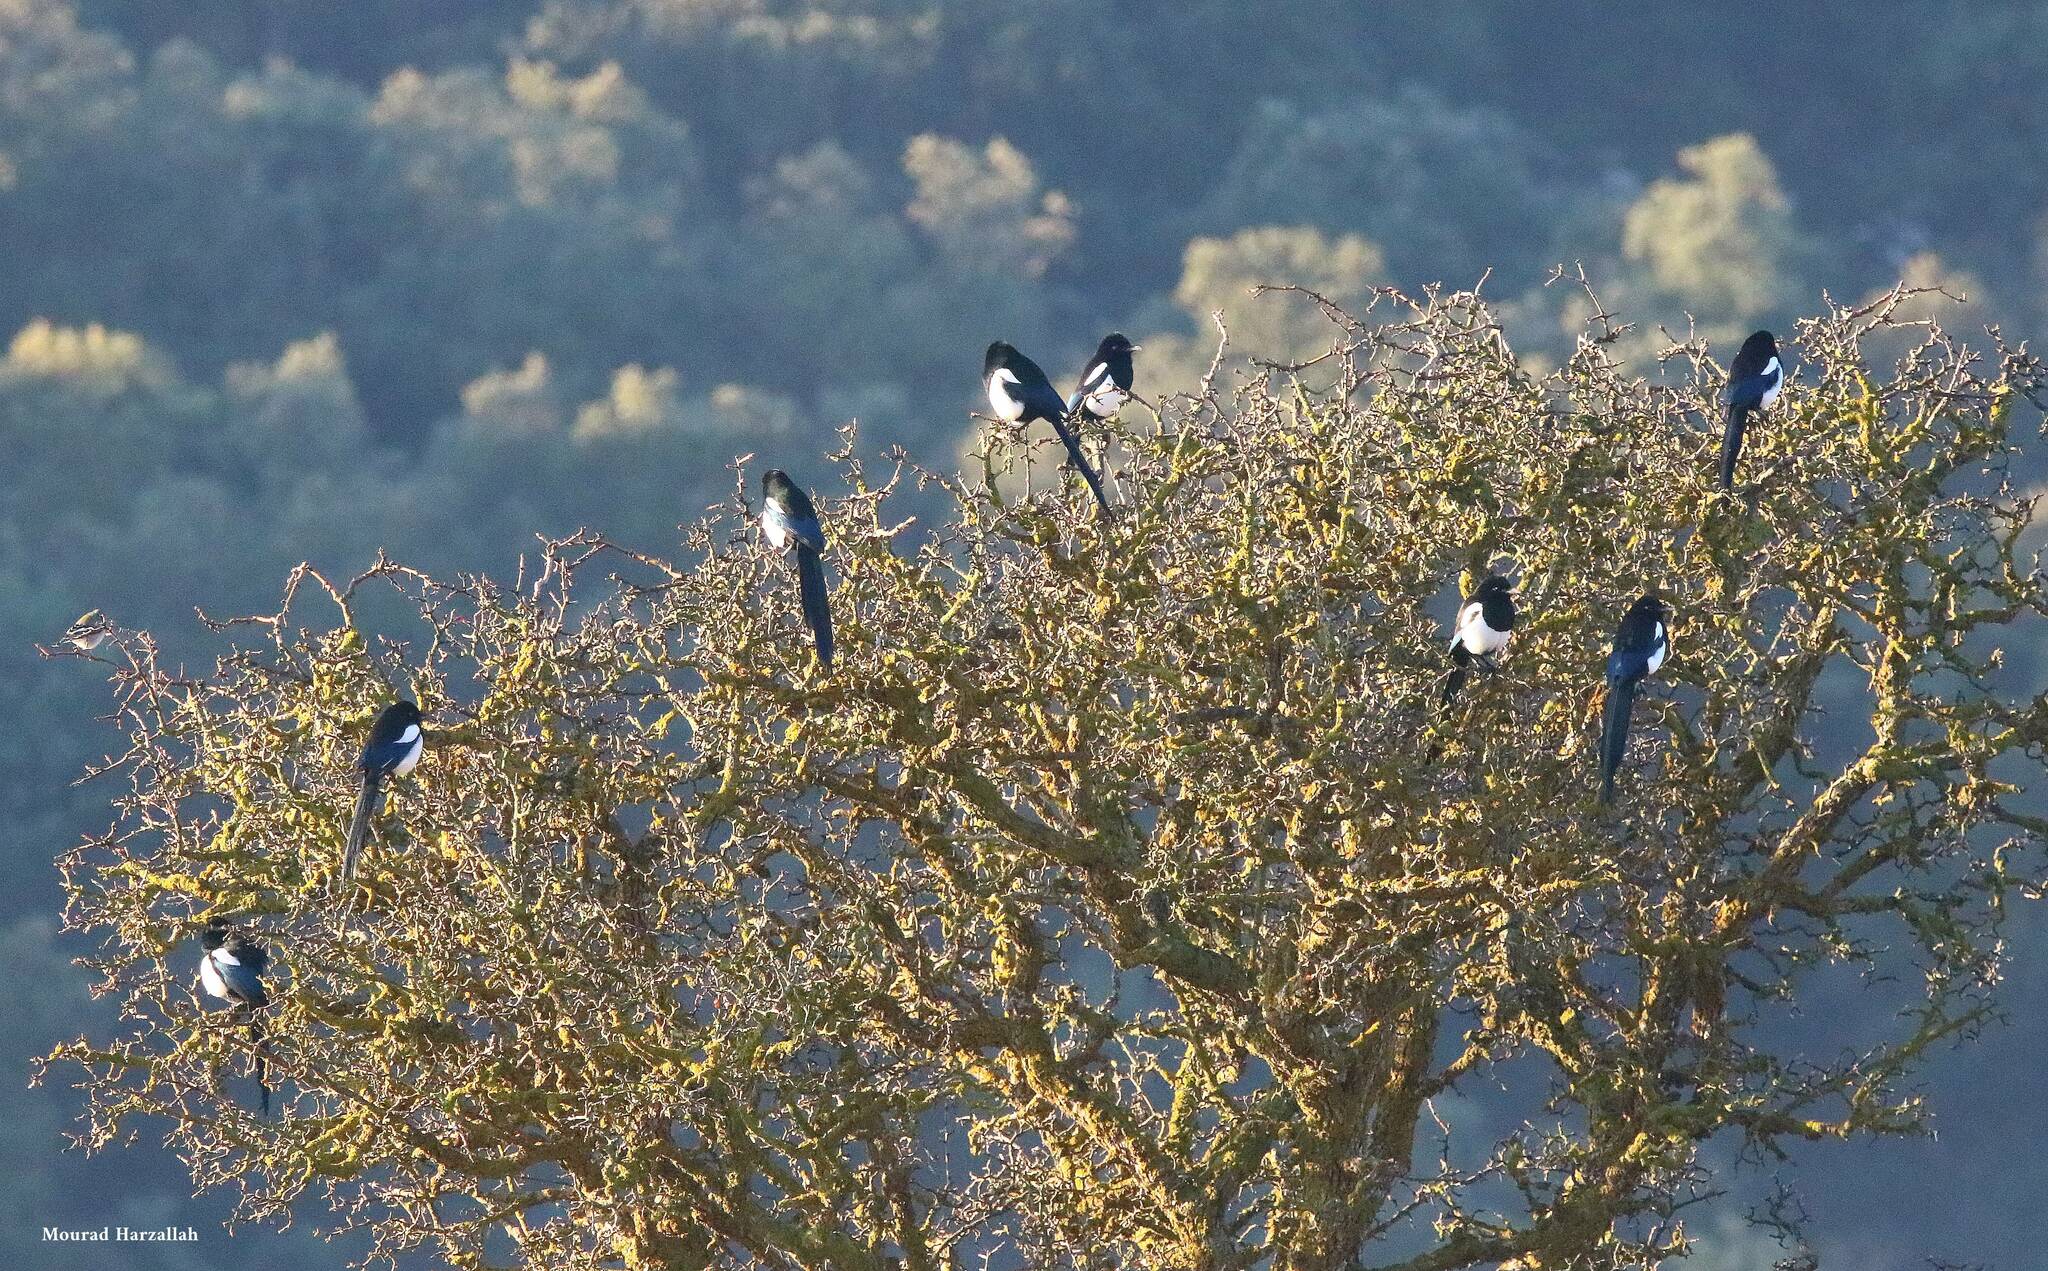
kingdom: Animalia
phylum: Chordata
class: Aves
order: Passeriformes
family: Corvidae
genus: Pica
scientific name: Pica mauritanica
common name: Maghreb magpie
